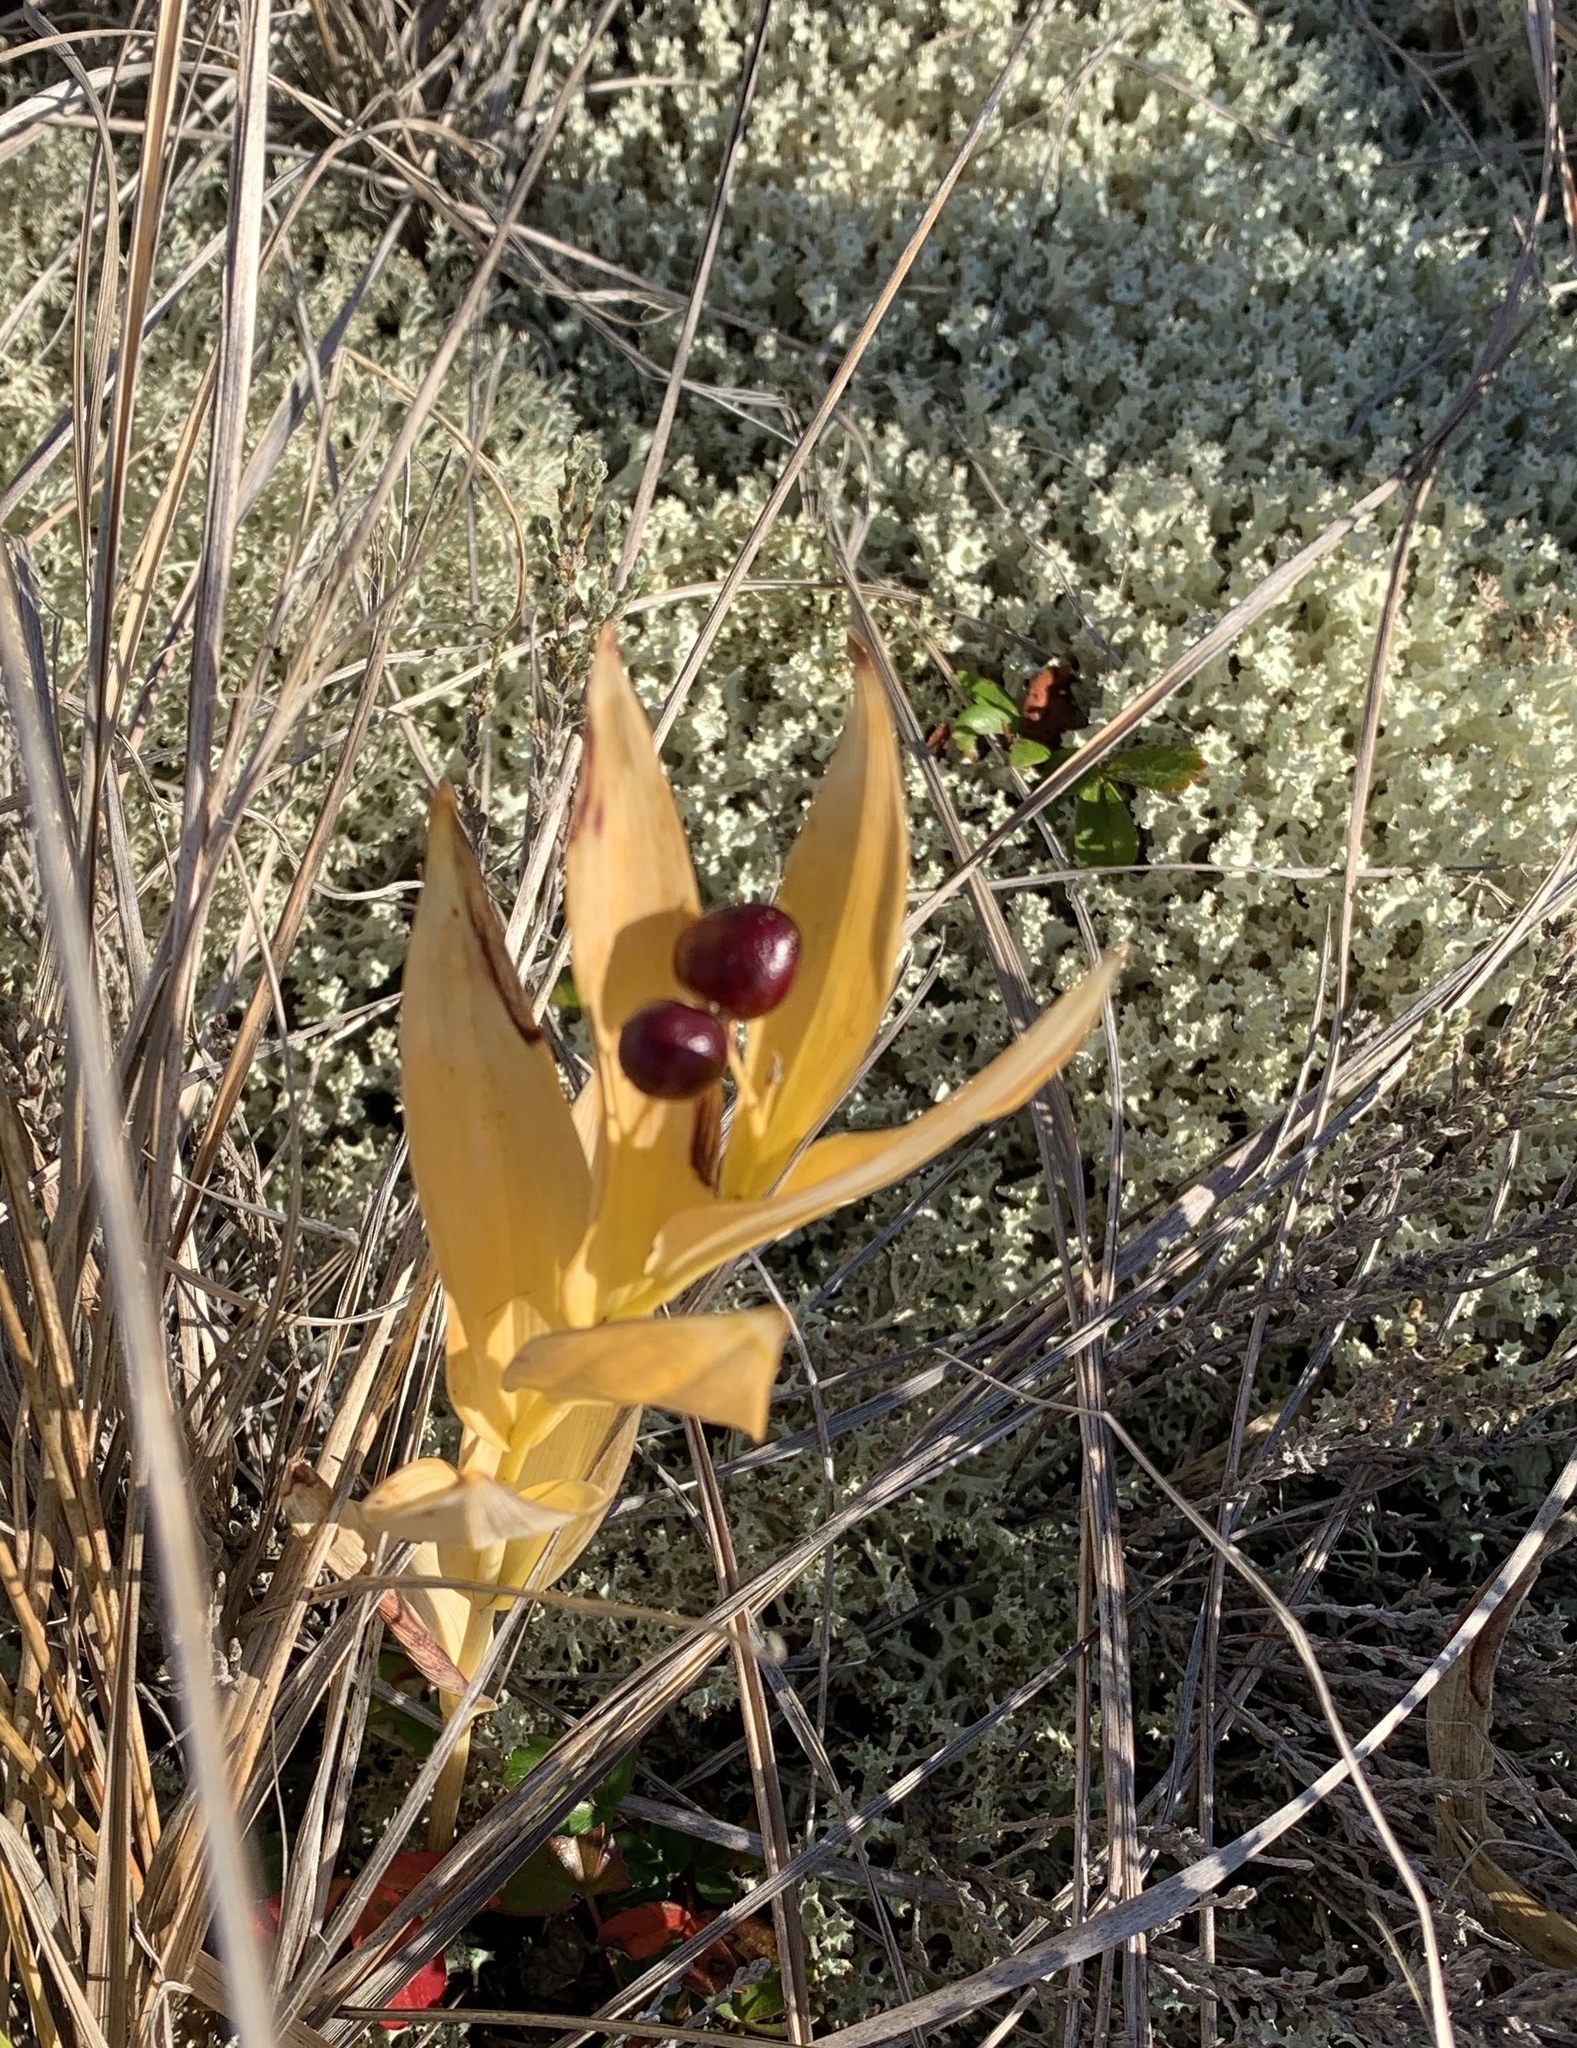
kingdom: Plantae
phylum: Tracheophyta
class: Liliopsida
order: Asparagales
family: Asparagaceae
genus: Maianthemum
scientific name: Maianthemum stellatum
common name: Little false solomon's seal
